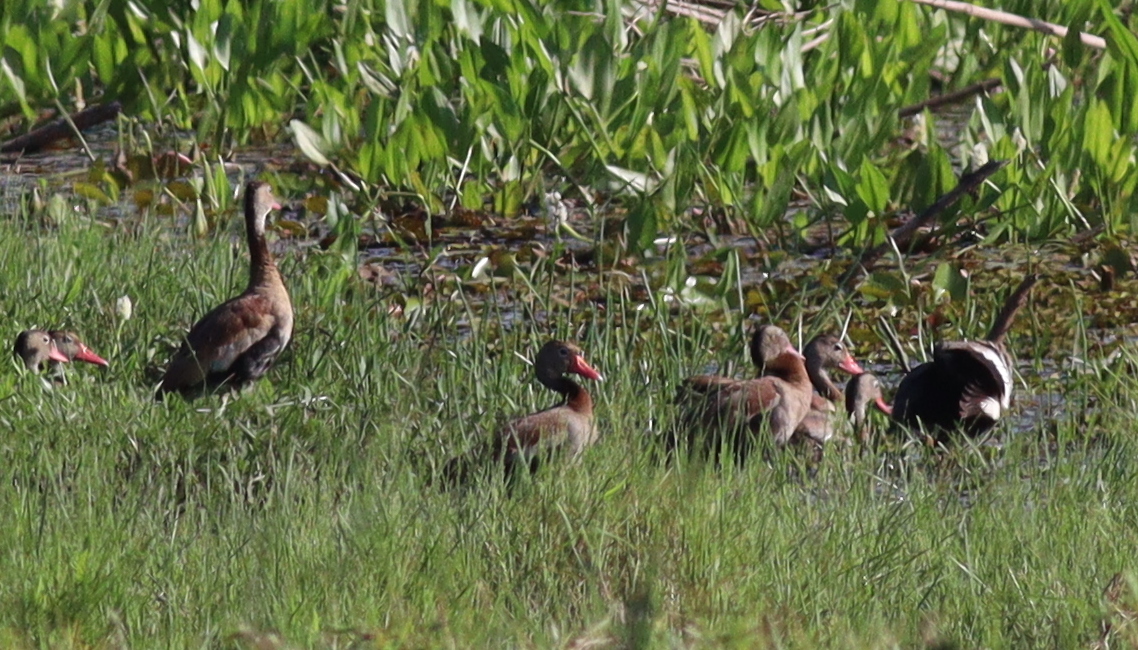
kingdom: Animalia
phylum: Chordata
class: Aves
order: Anseriformes
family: Anatidae
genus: Dendrocygna
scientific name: Dendrocygna autumnalis
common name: Black-bellied whistling duck
